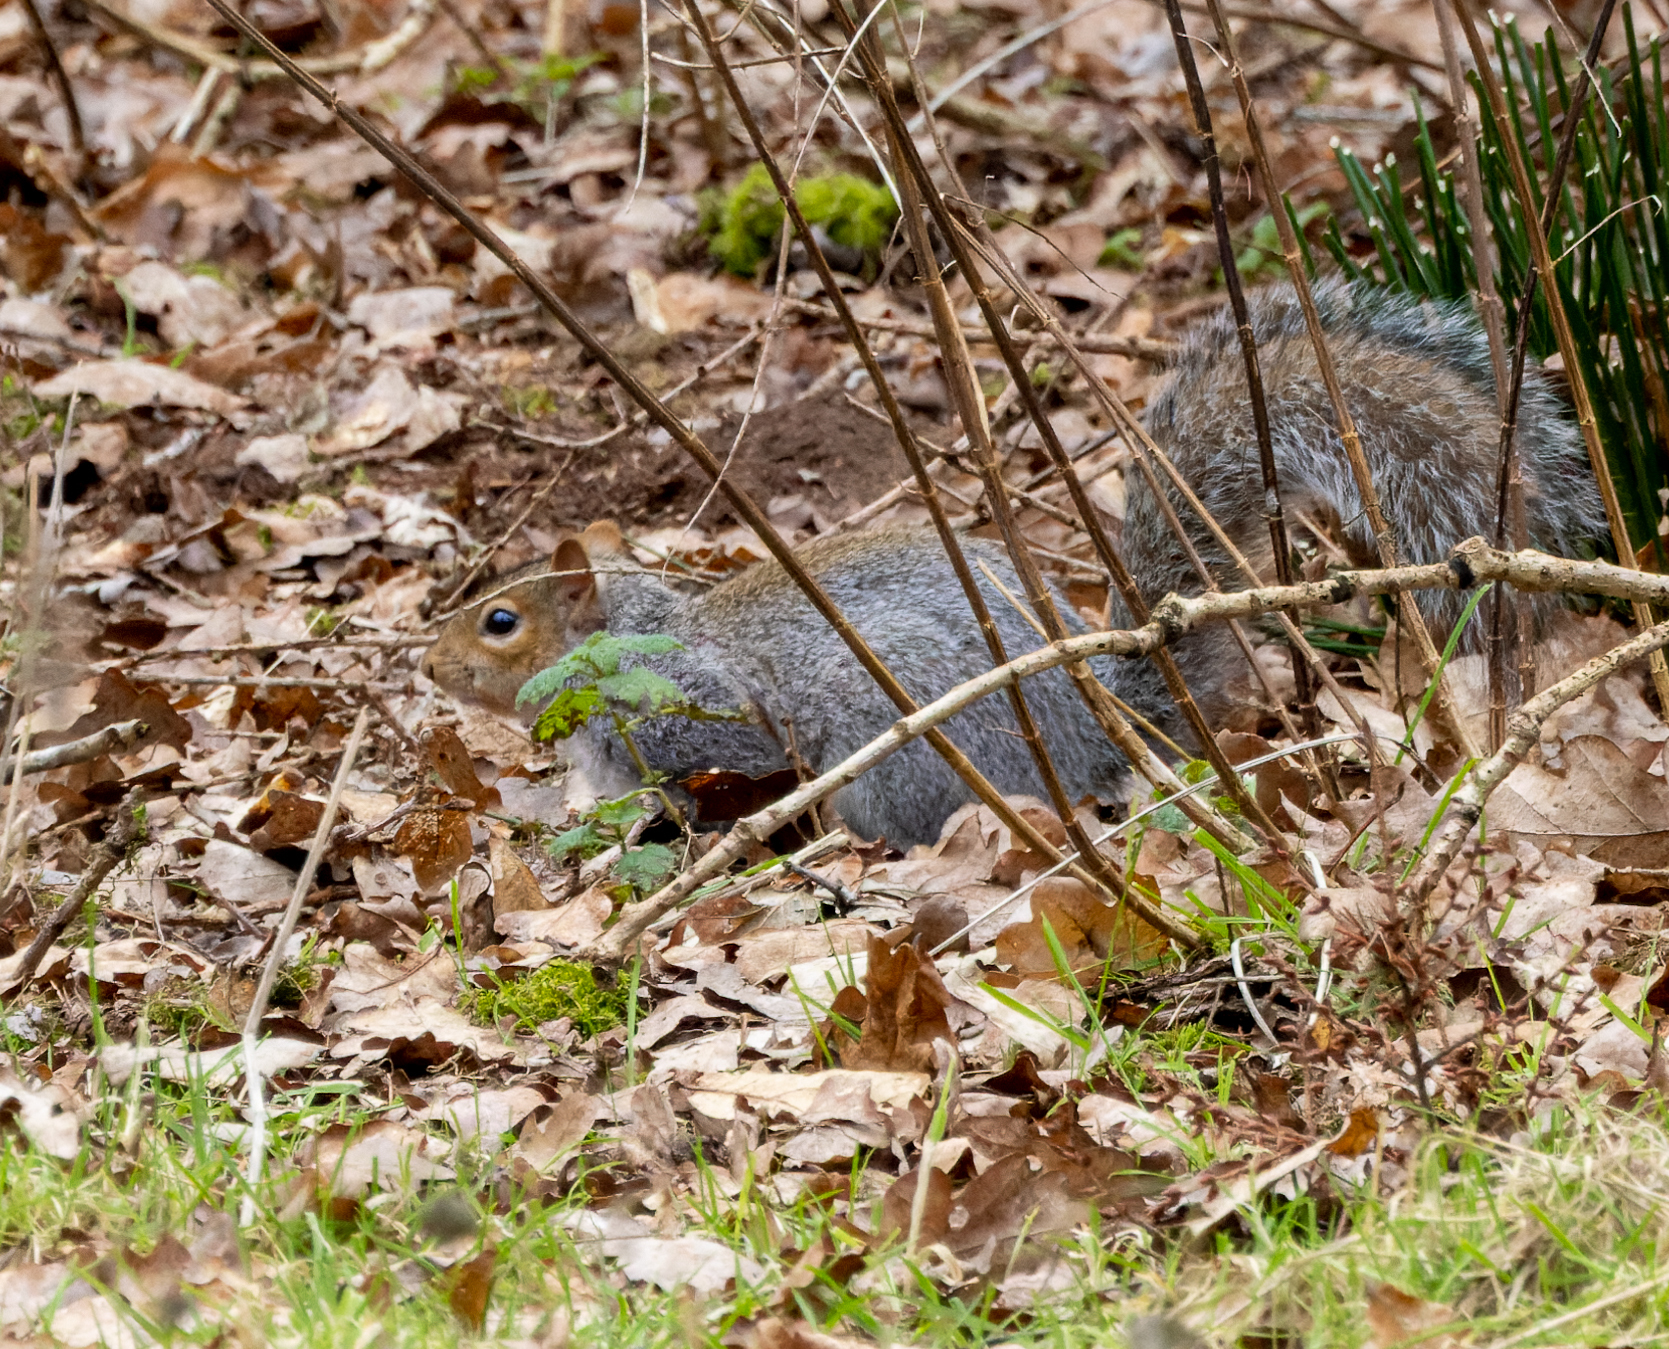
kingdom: Animalia
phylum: Chordata
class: Mammalia
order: Rodentia
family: Sciuridae
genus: Sciurus
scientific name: Sciurus carolinensis
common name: Eastern gray squirrel
